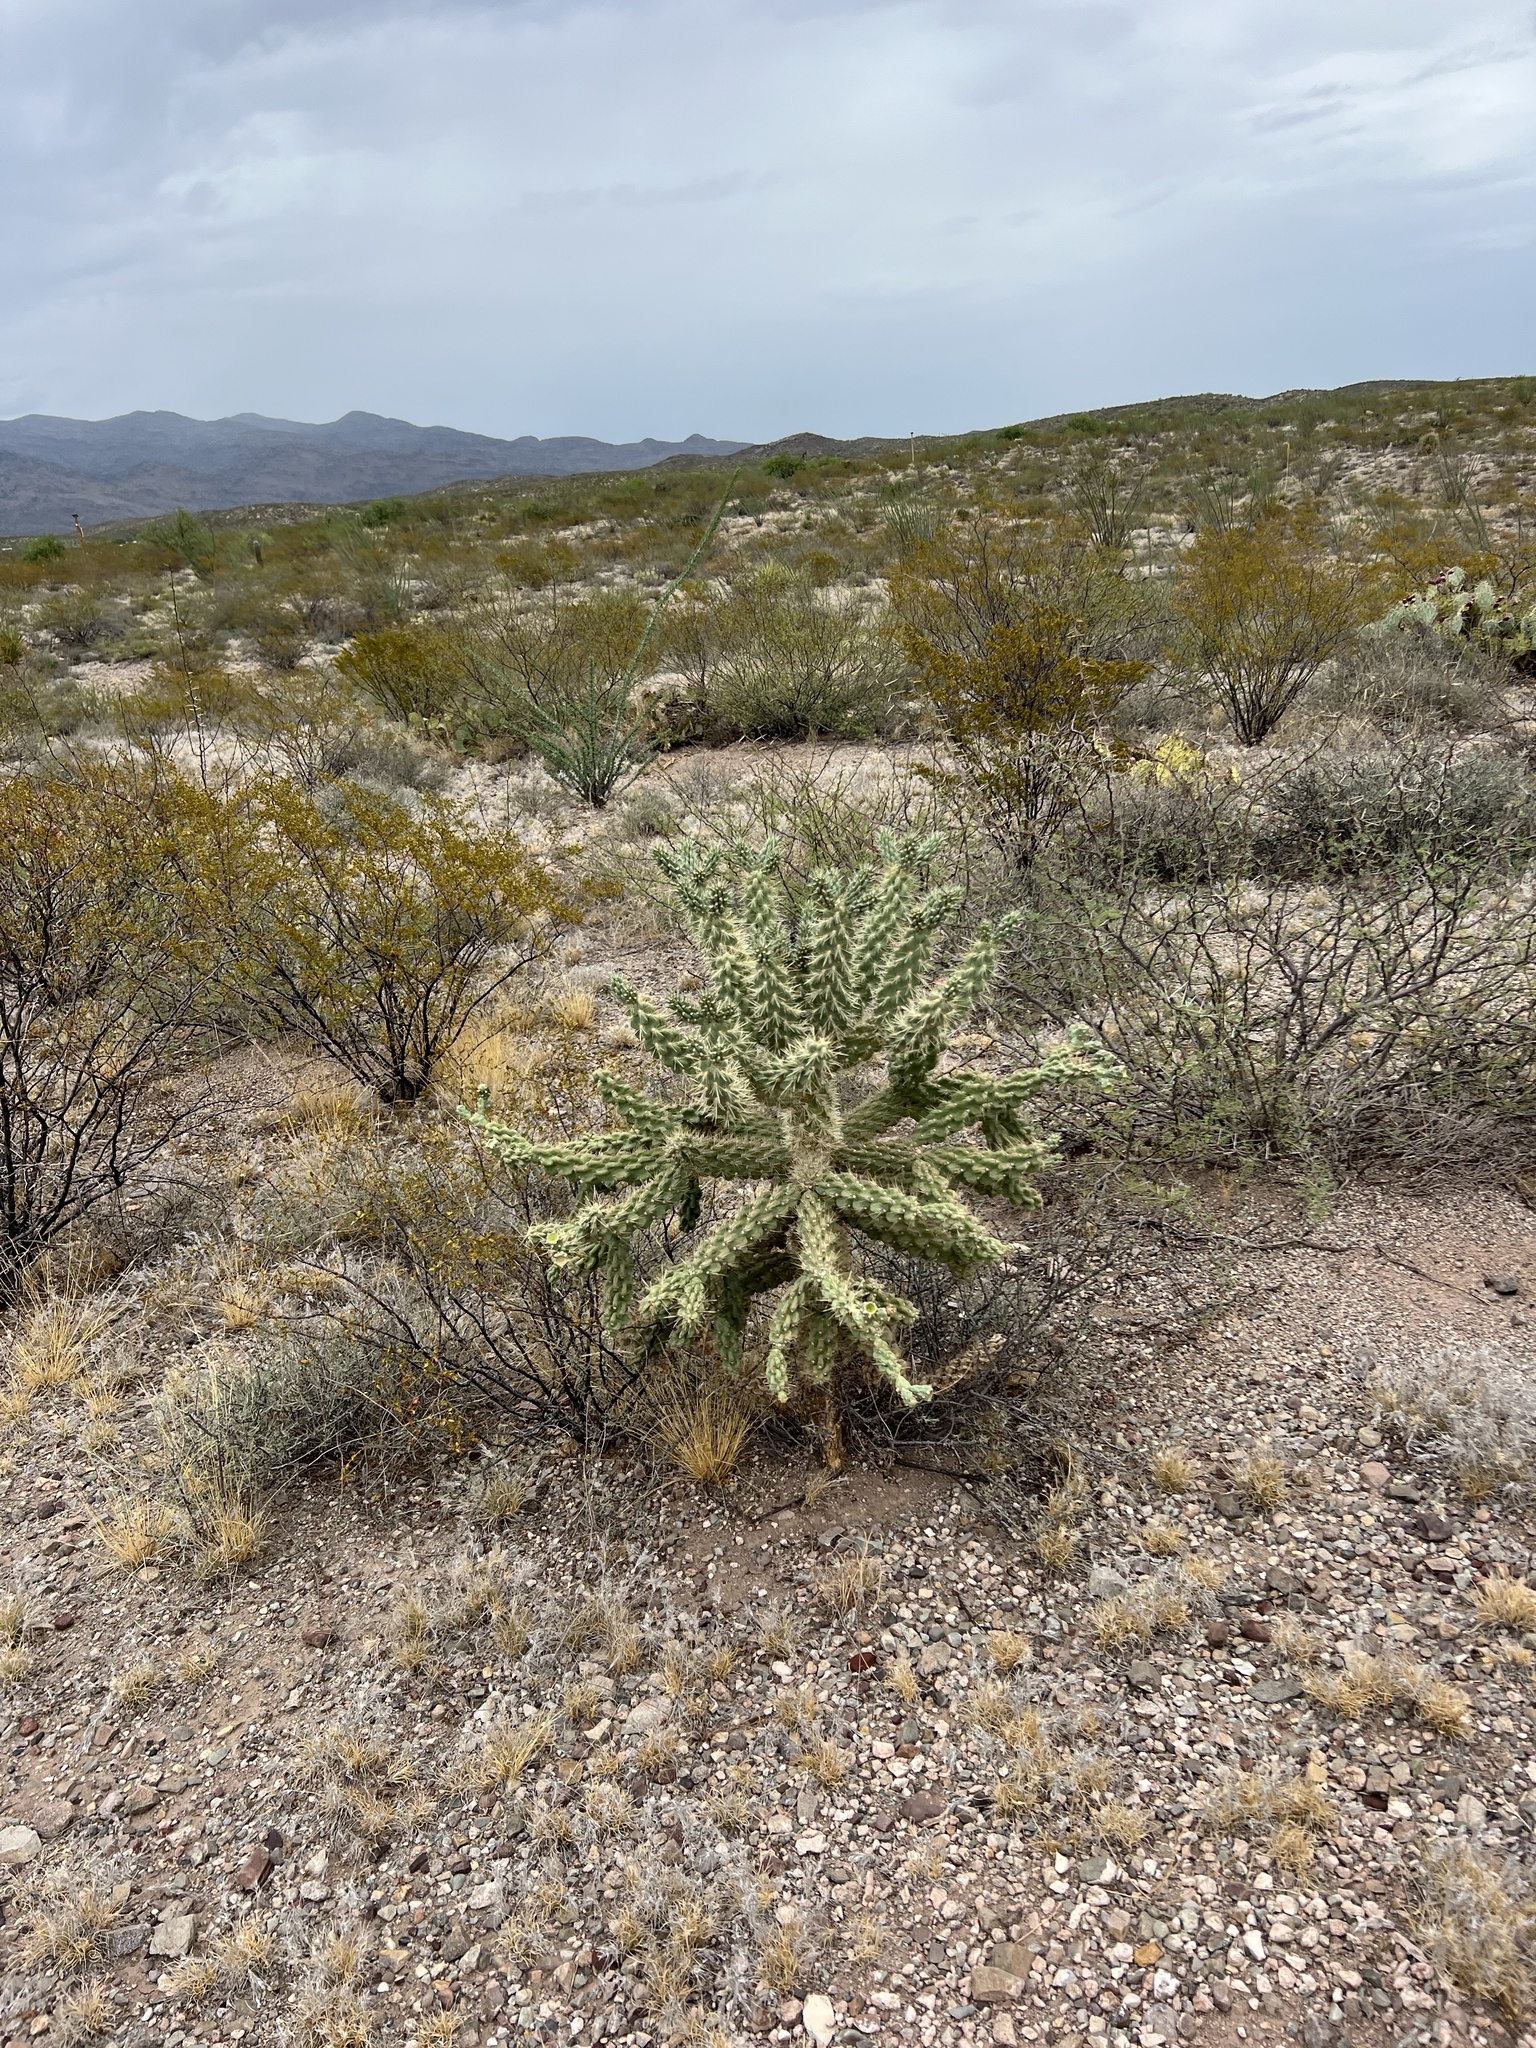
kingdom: Plantae
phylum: Tracheophyta
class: Magnoliopsida
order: Caryophyllales
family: Cactaceae
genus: Cylindropuntia
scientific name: Cylindropuntia fulgida
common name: Jumping cholla
